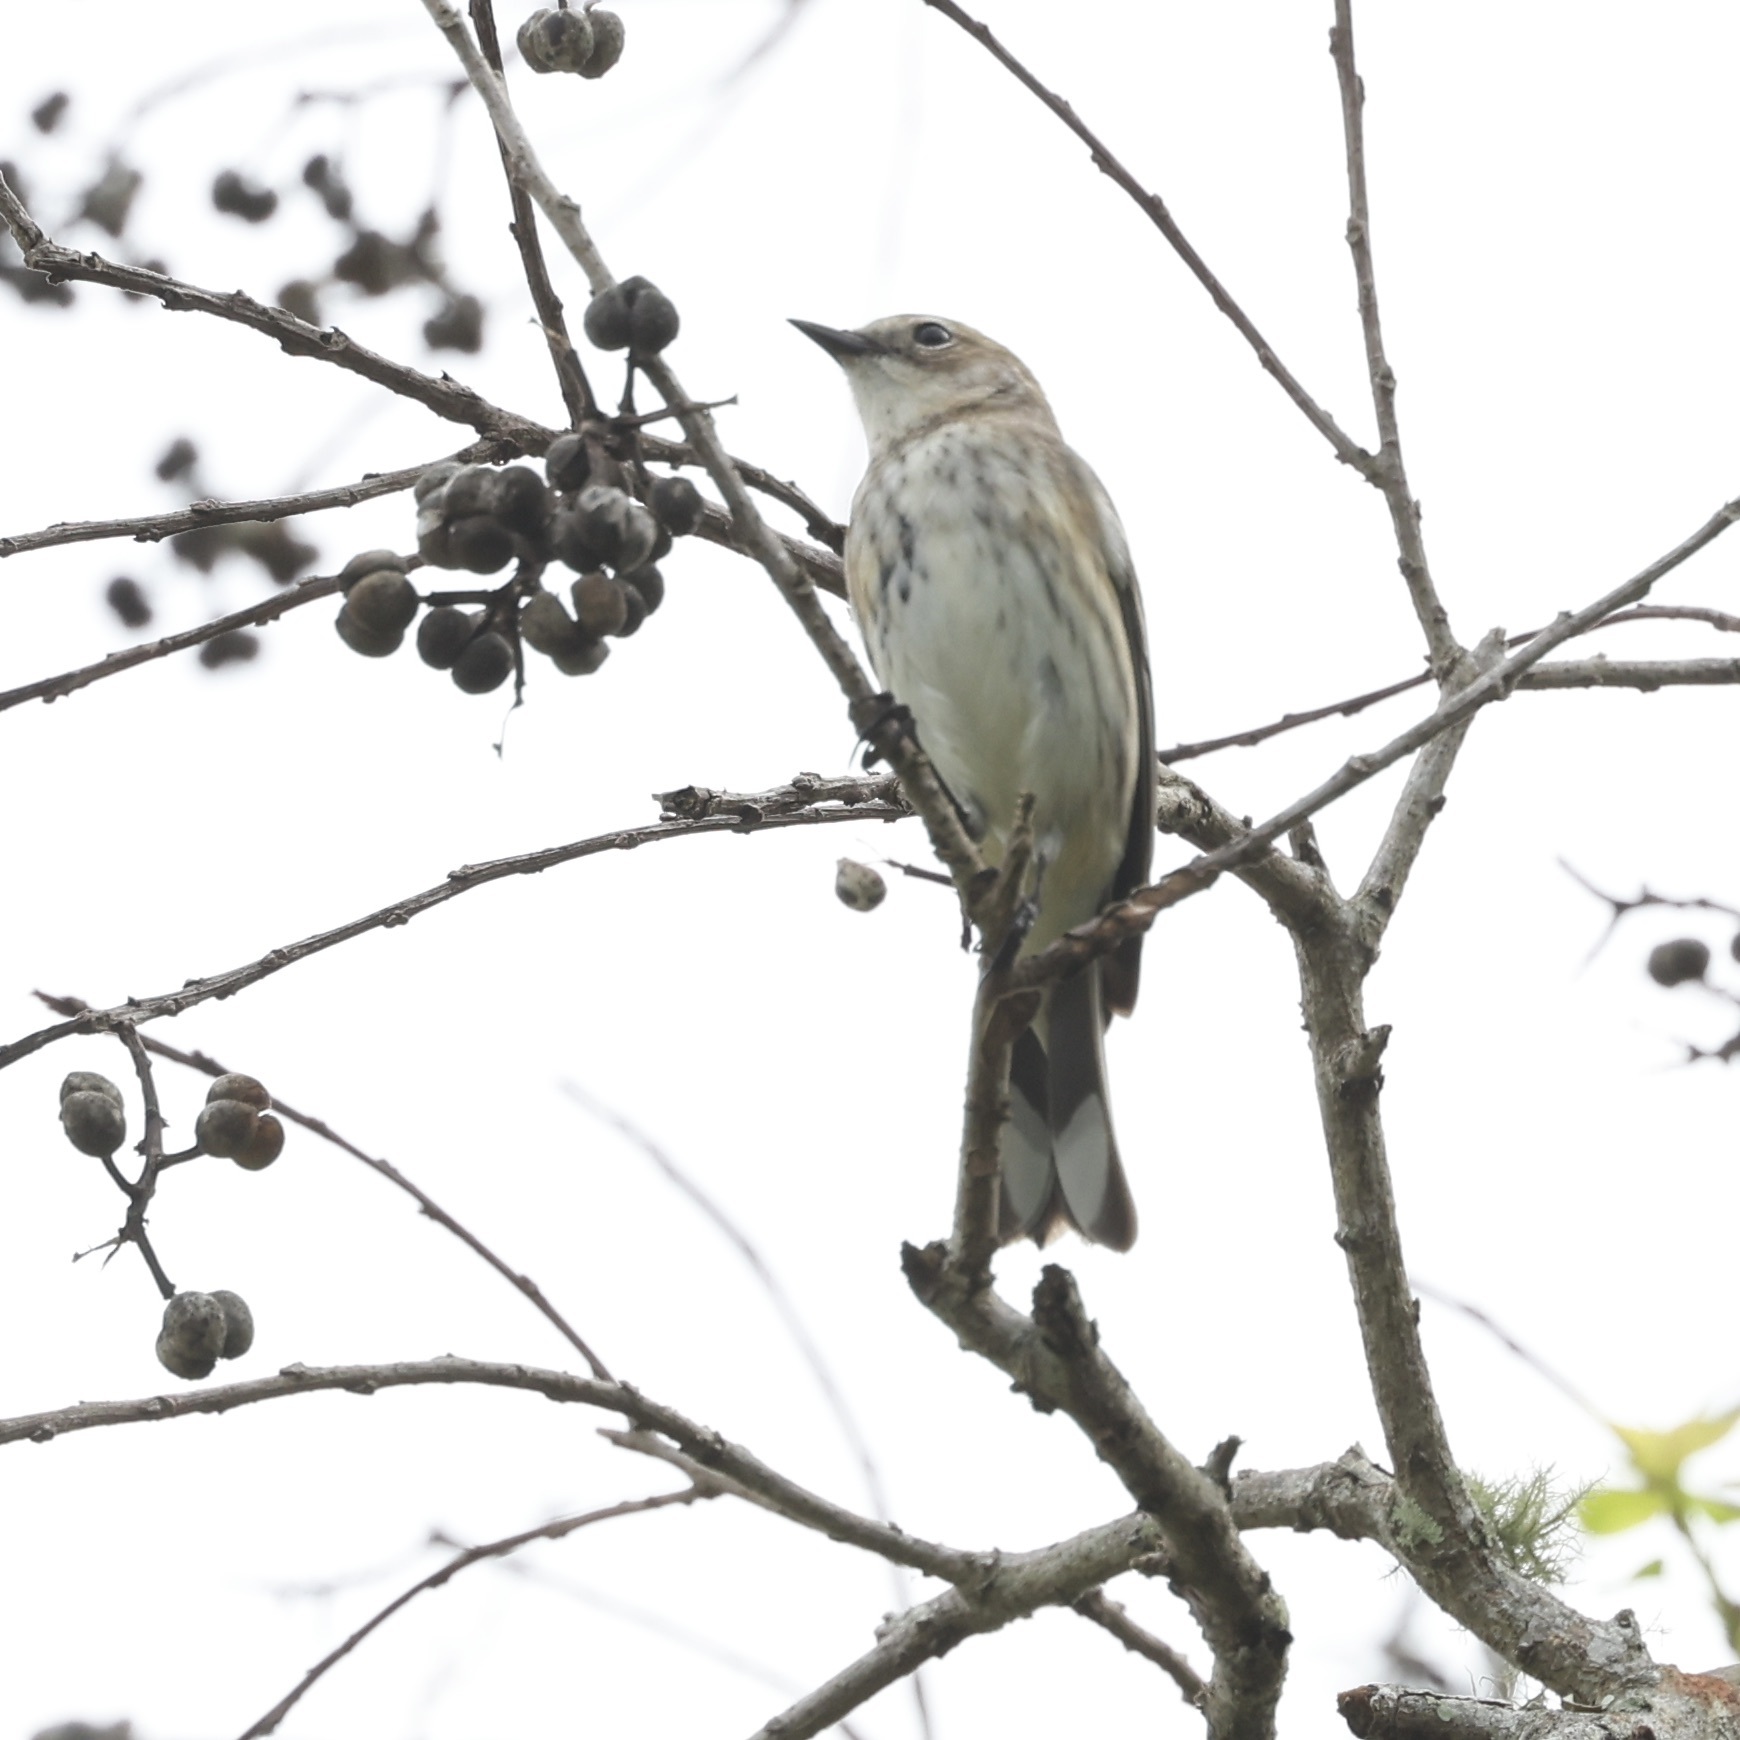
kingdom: Animalia
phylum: Chordata
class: Aves
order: Passeriformes
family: Parulidae
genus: Setophaga
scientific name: Setophaga coronata
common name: Myrtle warbler
